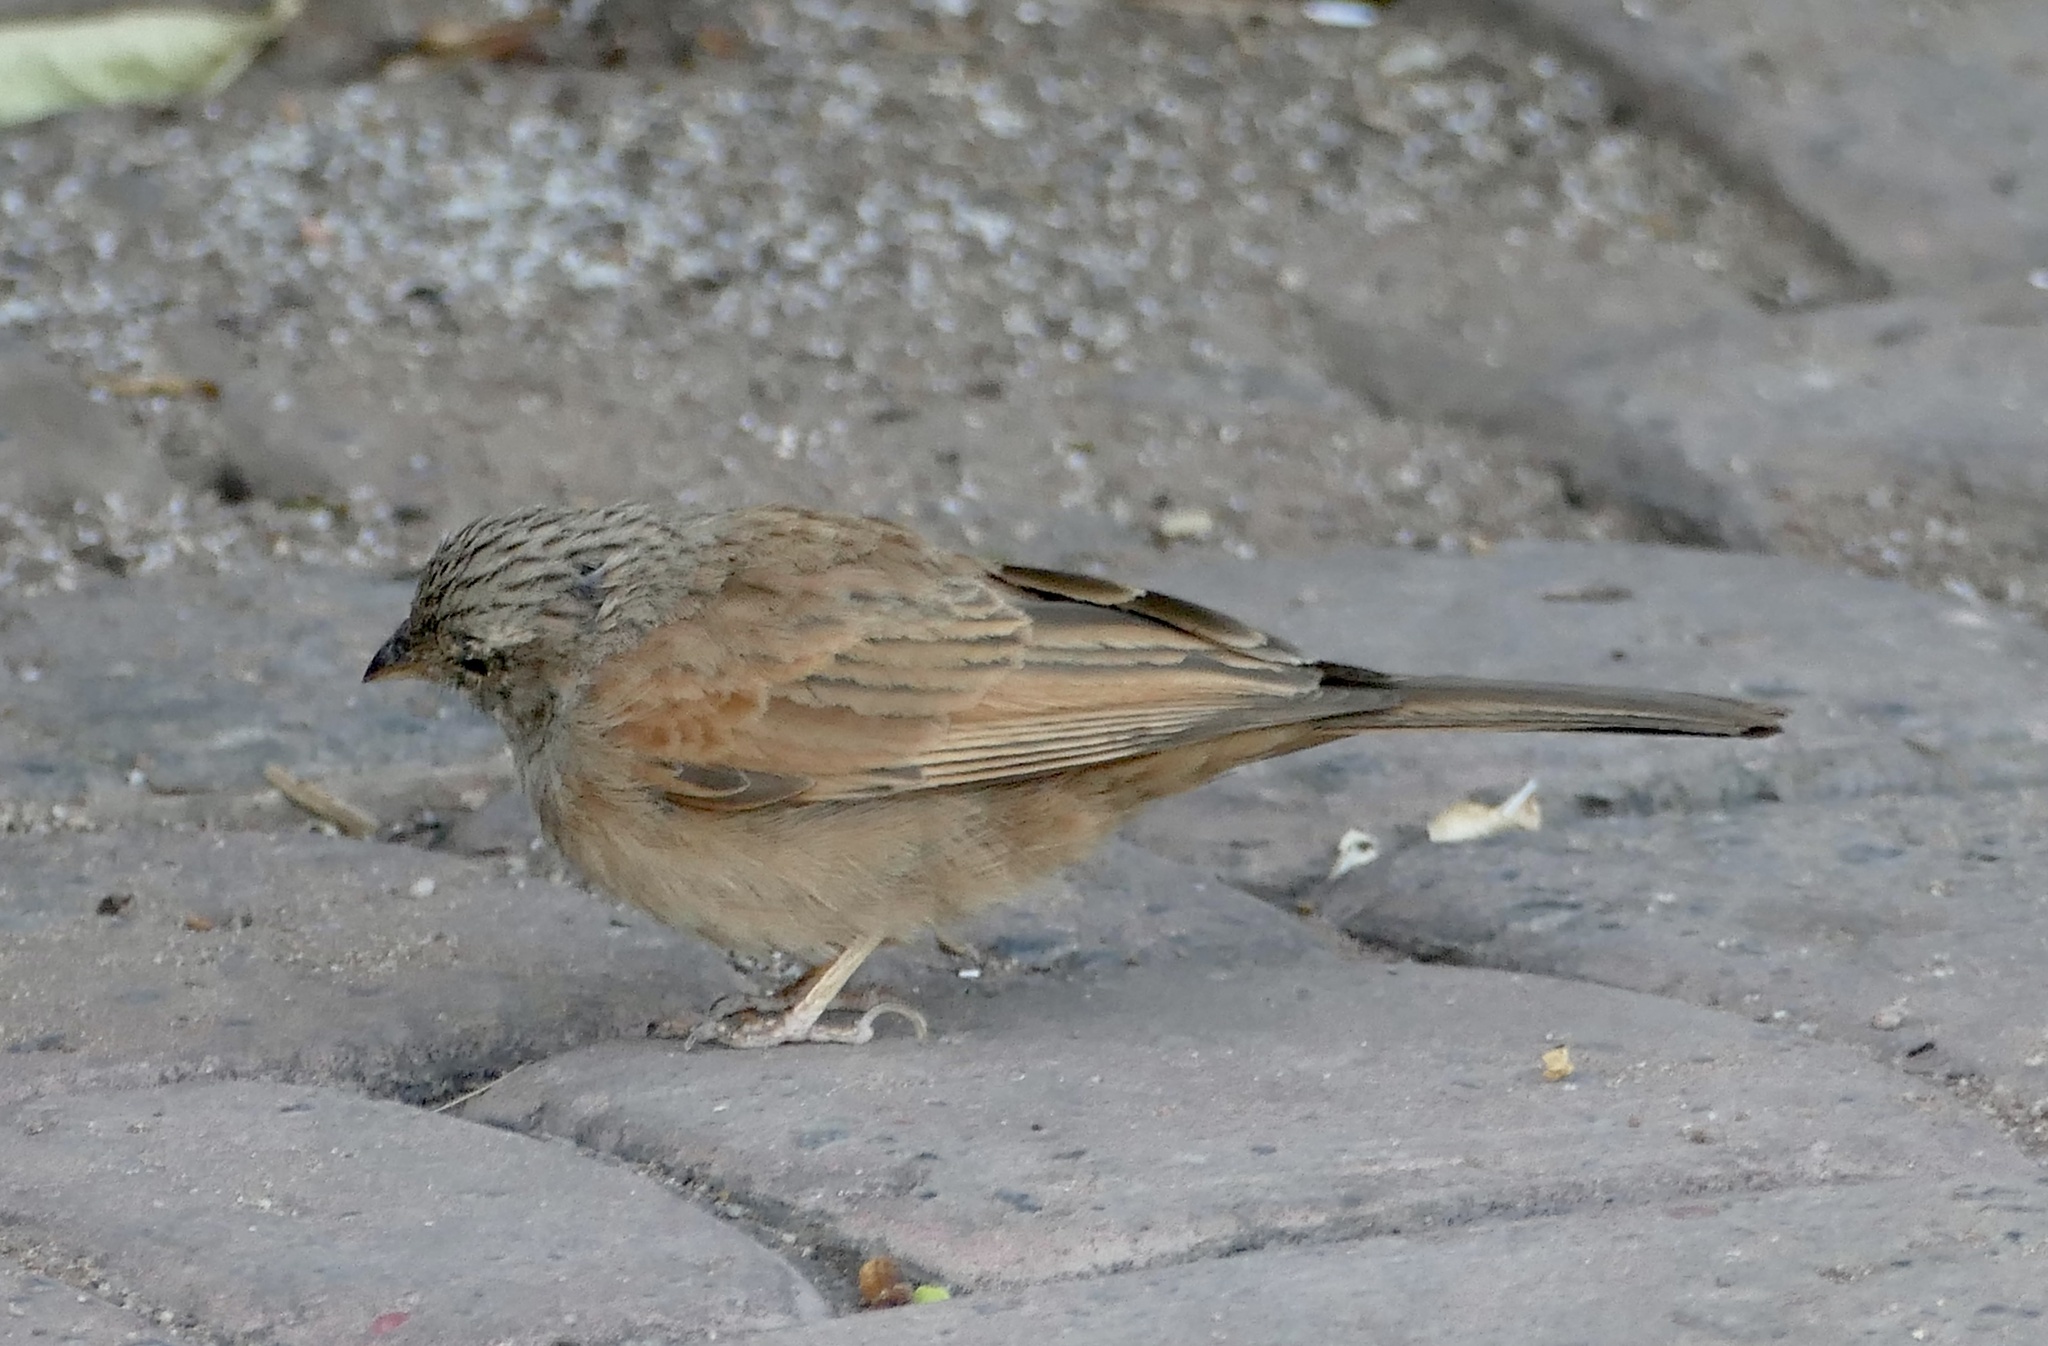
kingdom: Animalia
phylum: Chordata
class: Aves
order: Passeriformes
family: Emberizidae
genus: Emberiza
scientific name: Emberiza sahari
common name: House bunting
